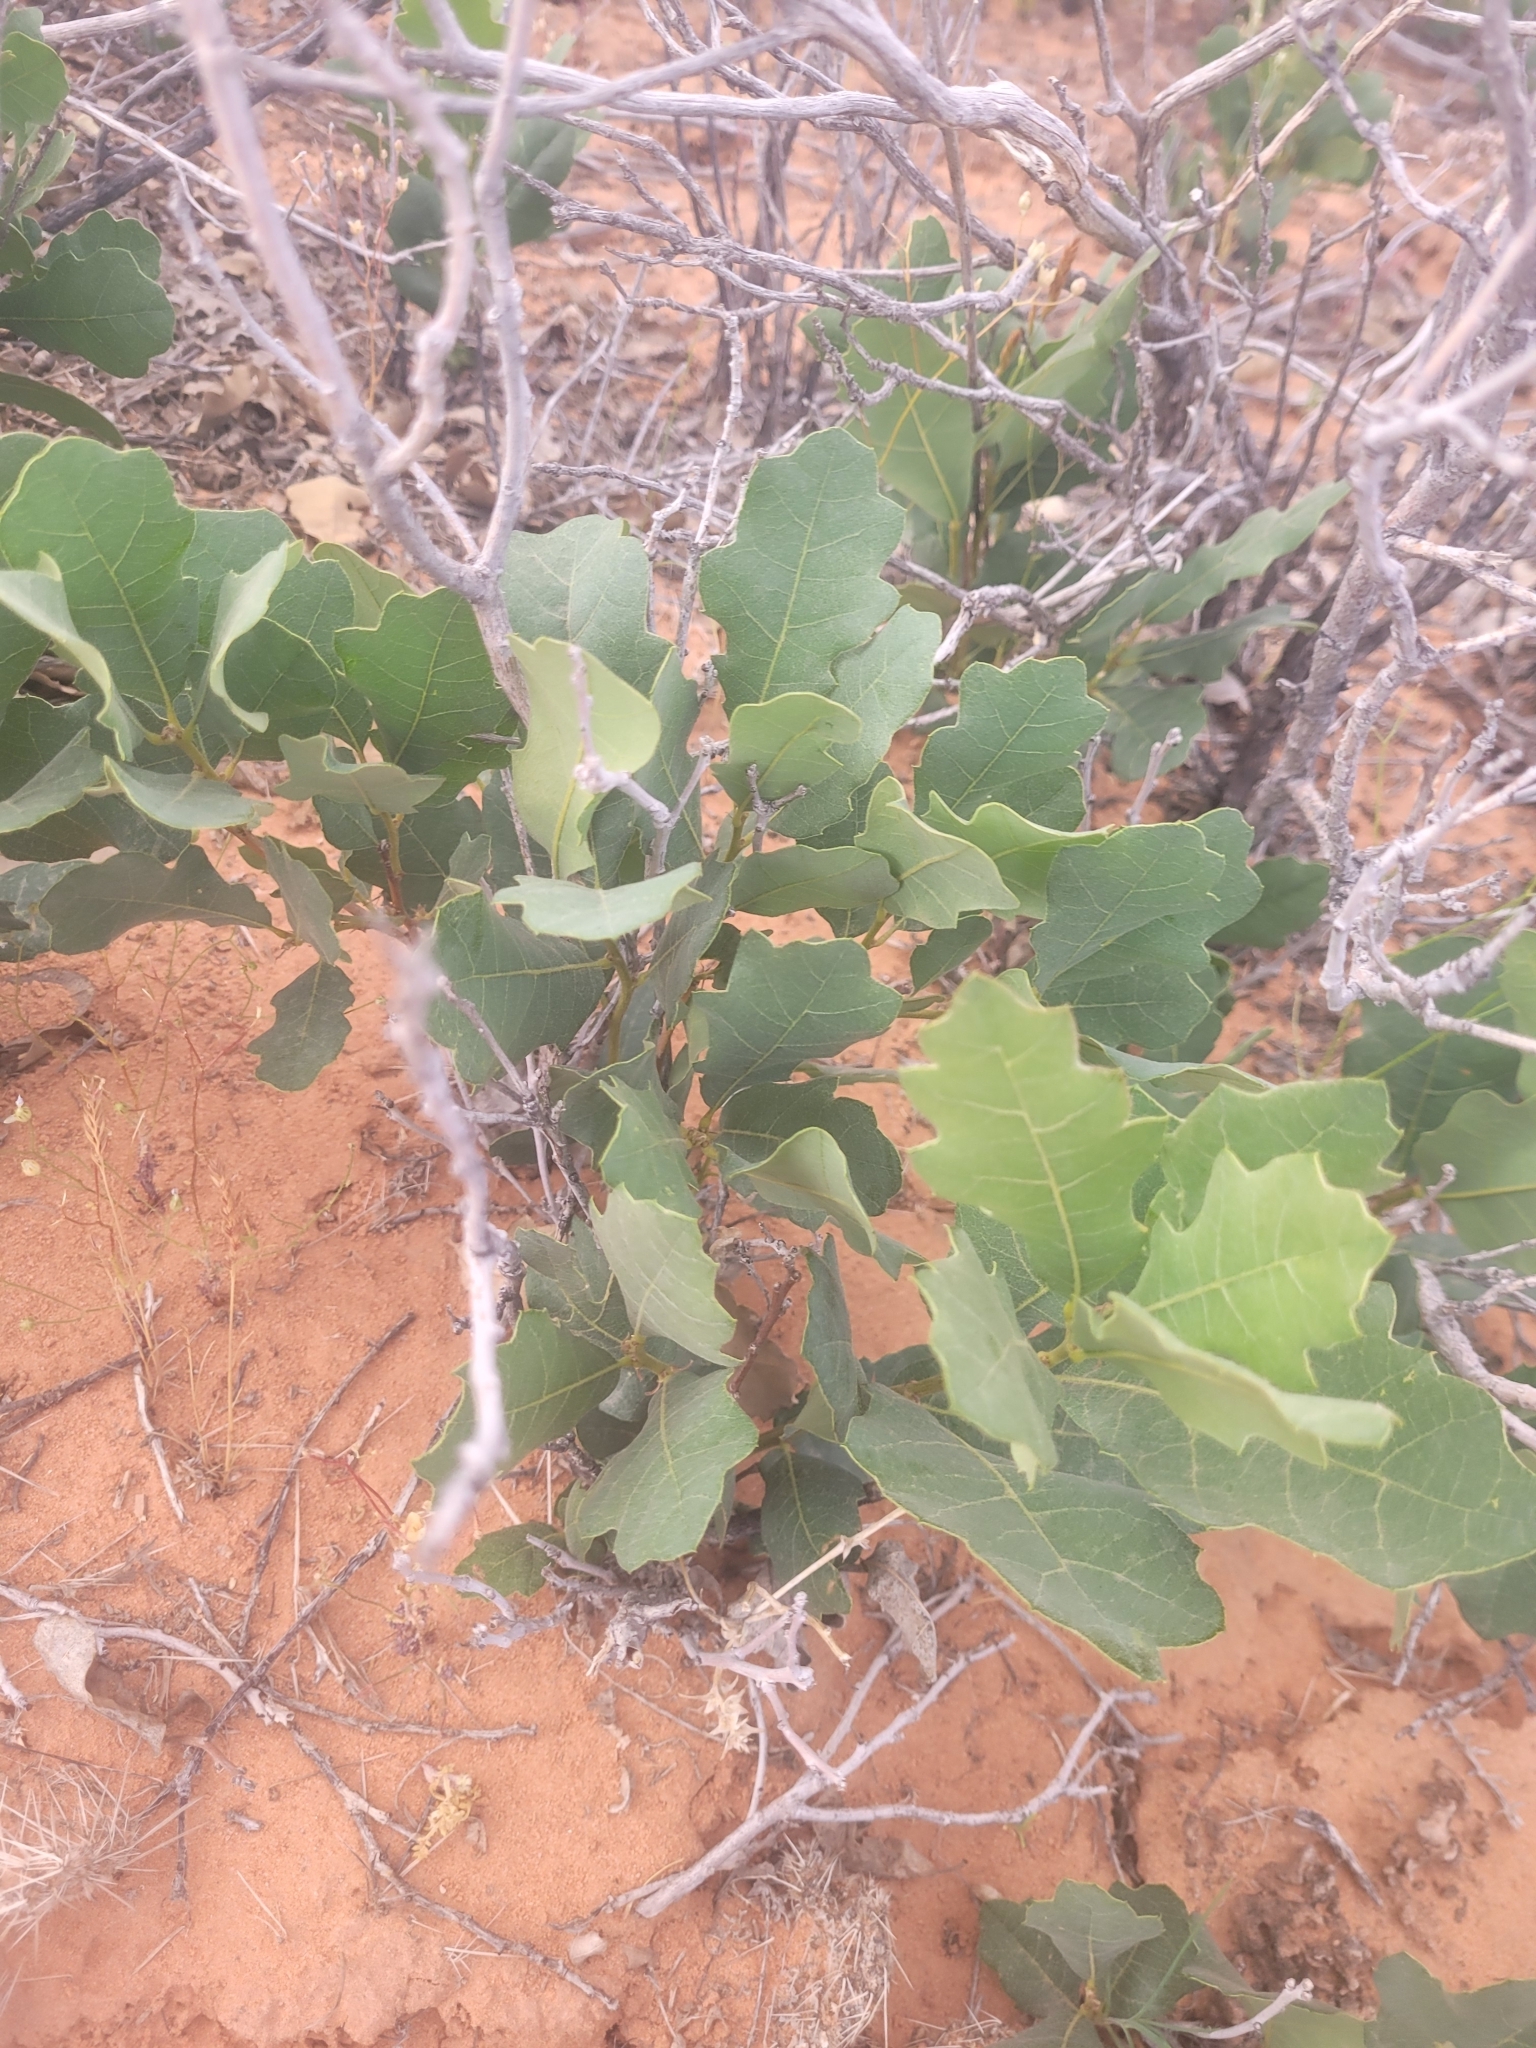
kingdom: Plantae
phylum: Tracheophyta
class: Magnoliopsida
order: Fagales
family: Fagaceae
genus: Quercus
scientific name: Quercus welshii
